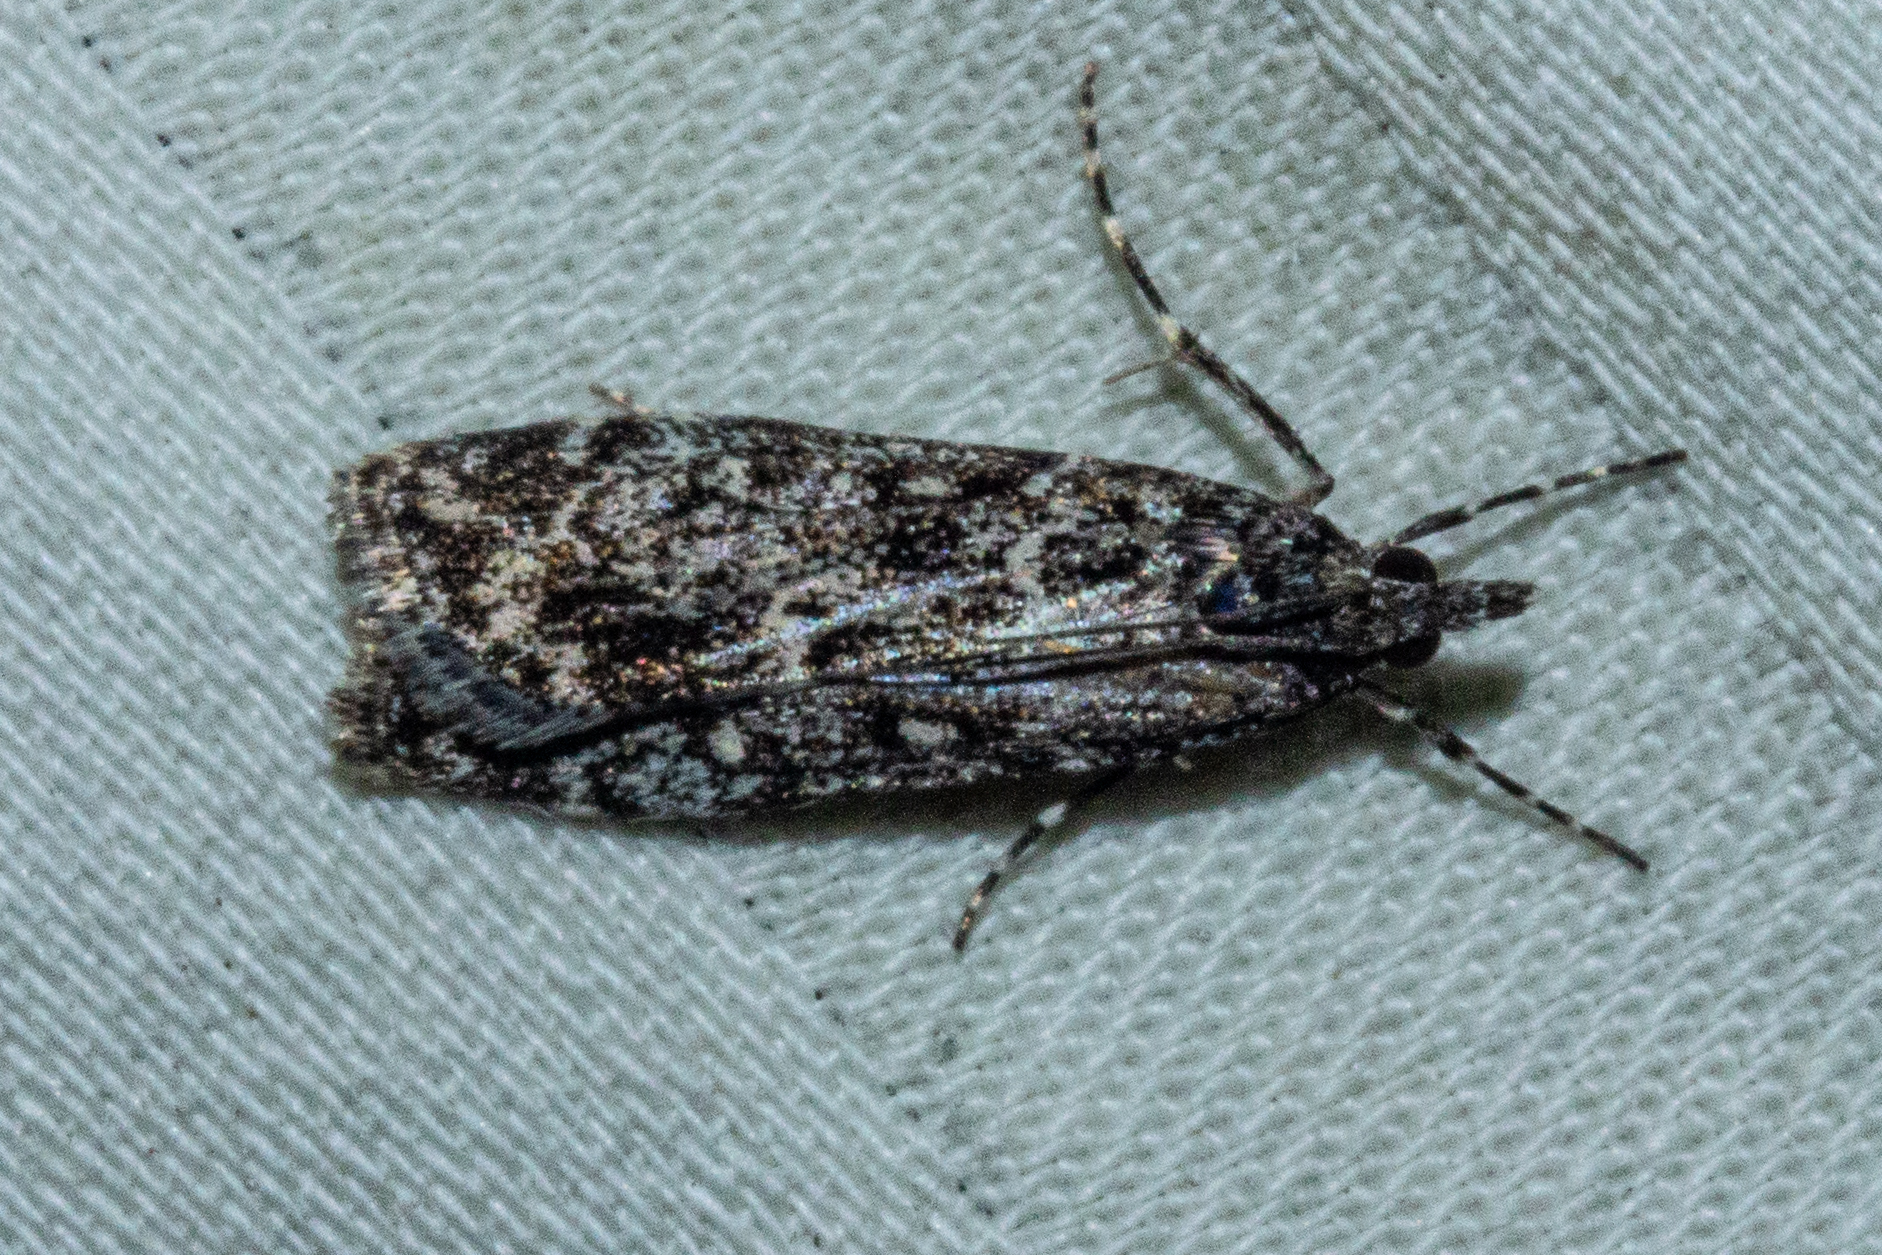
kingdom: Animalia
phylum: Arthropoda
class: Insecta
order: Lepidoptera
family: Crambidae
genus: Eudonia
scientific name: Eudonia philerga
